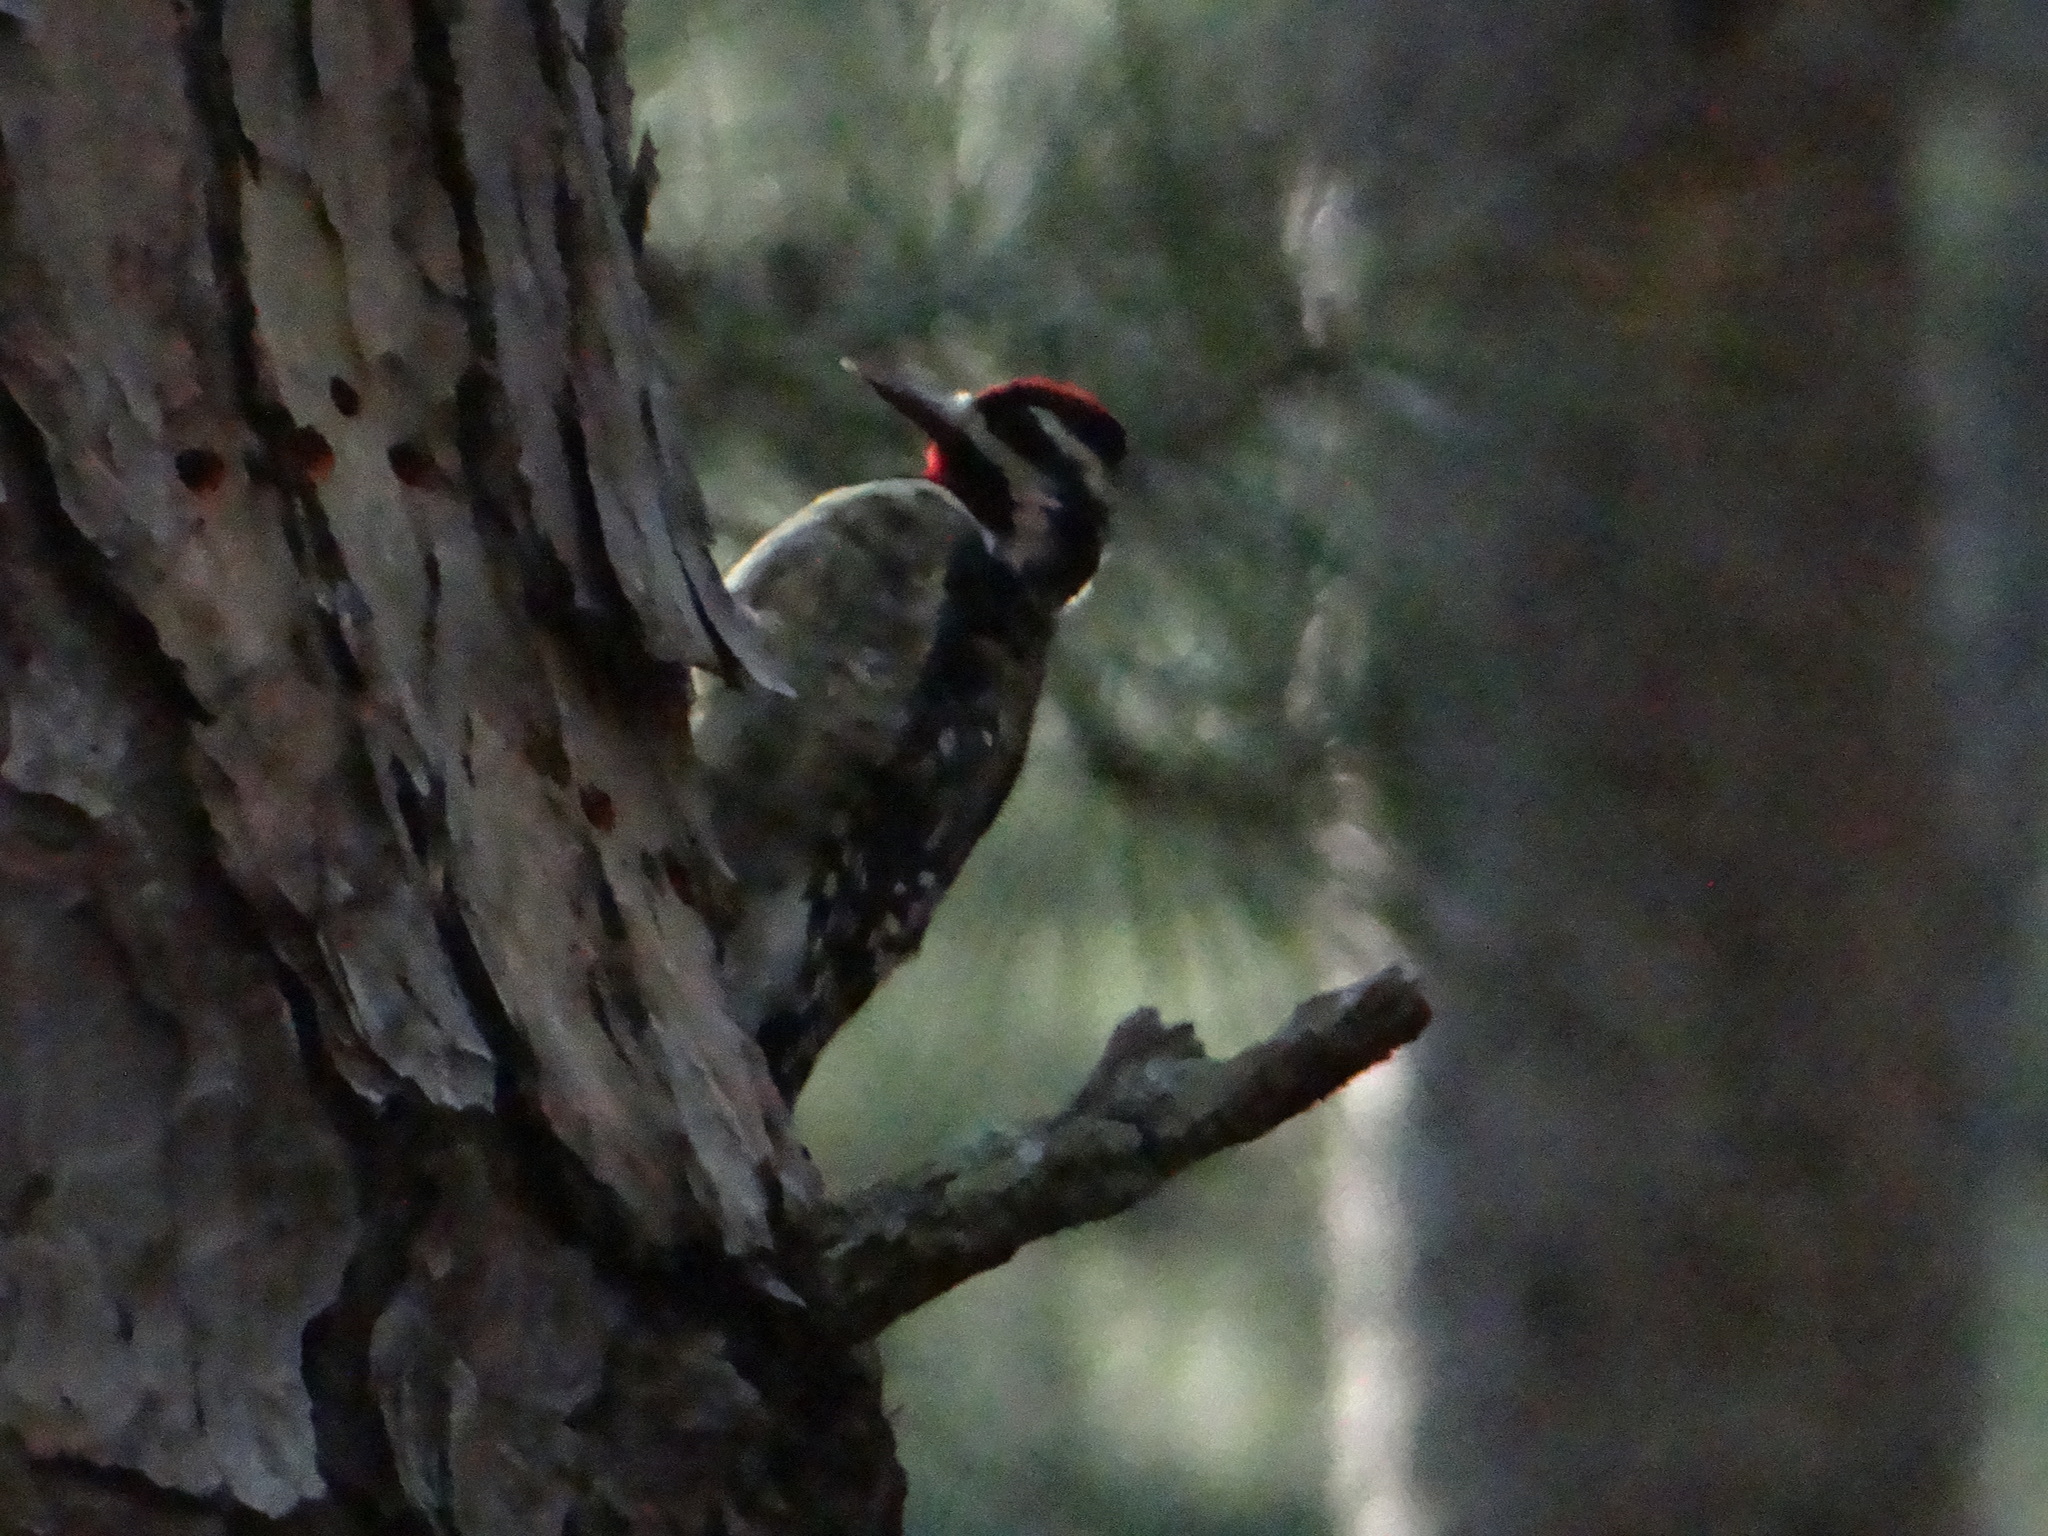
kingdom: Animalia
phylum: Chordata
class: Aves
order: Piciformes
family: Picidae
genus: Sphyrapicus
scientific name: Sphyrapicus varius
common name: Yellow-bellied sapsucker
